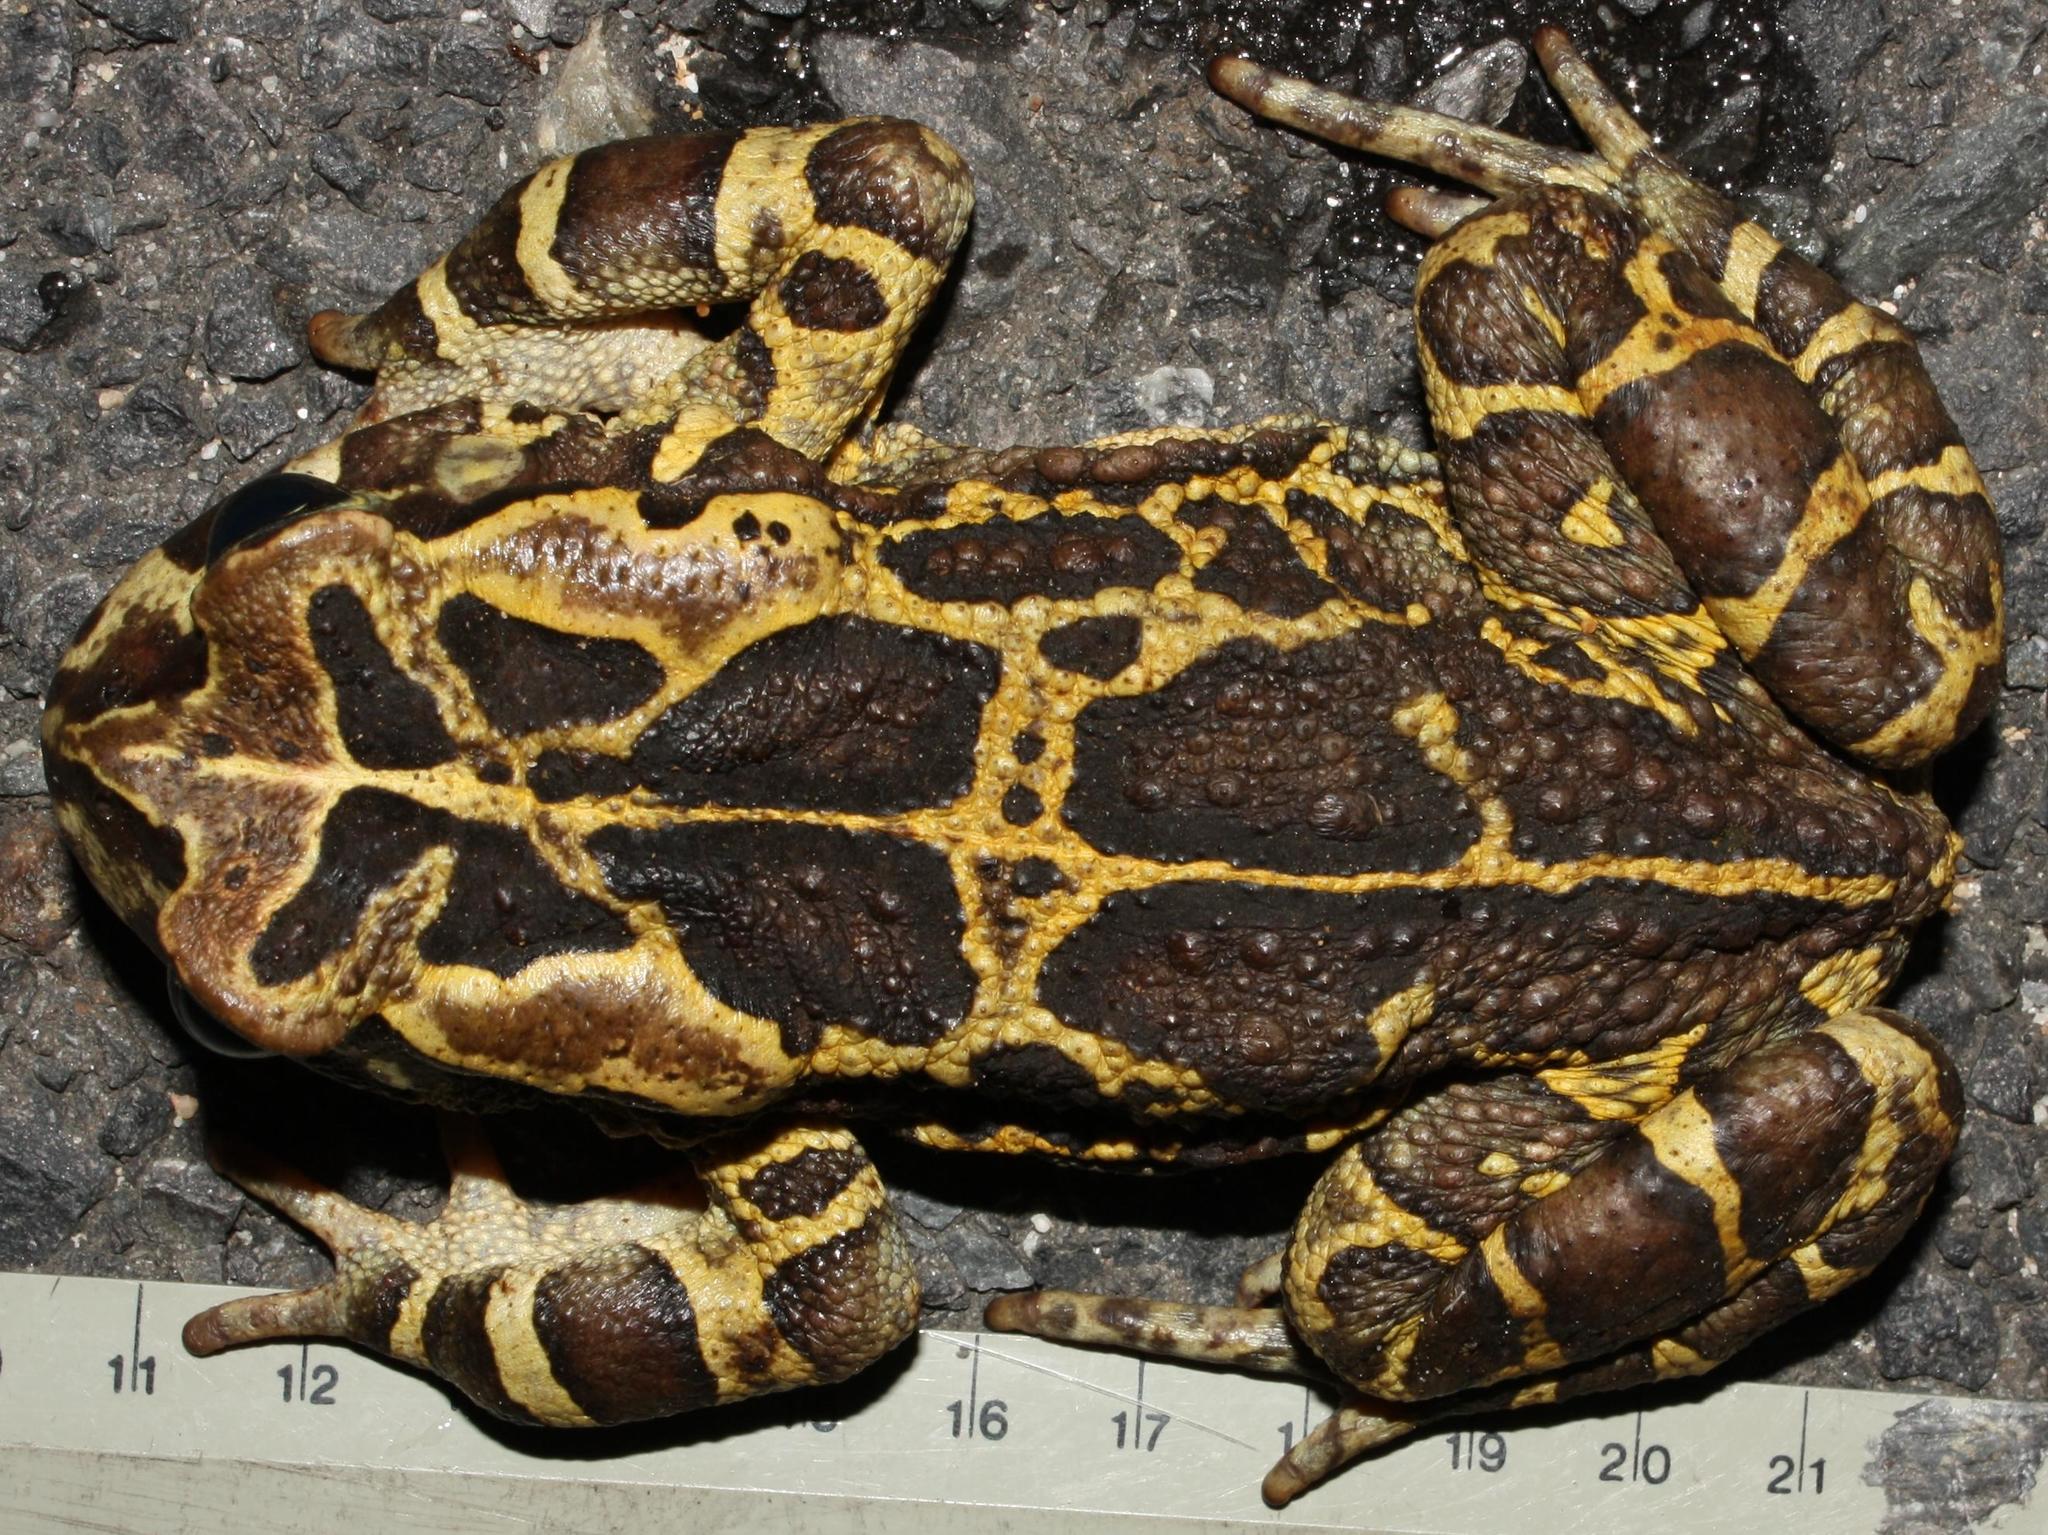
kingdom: Animalia
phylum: Chordata
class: Amphibia
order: Anura
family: Bufonidae
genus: Sclerophrys
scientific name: Sclerophrys pantherina
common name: Panther toad
